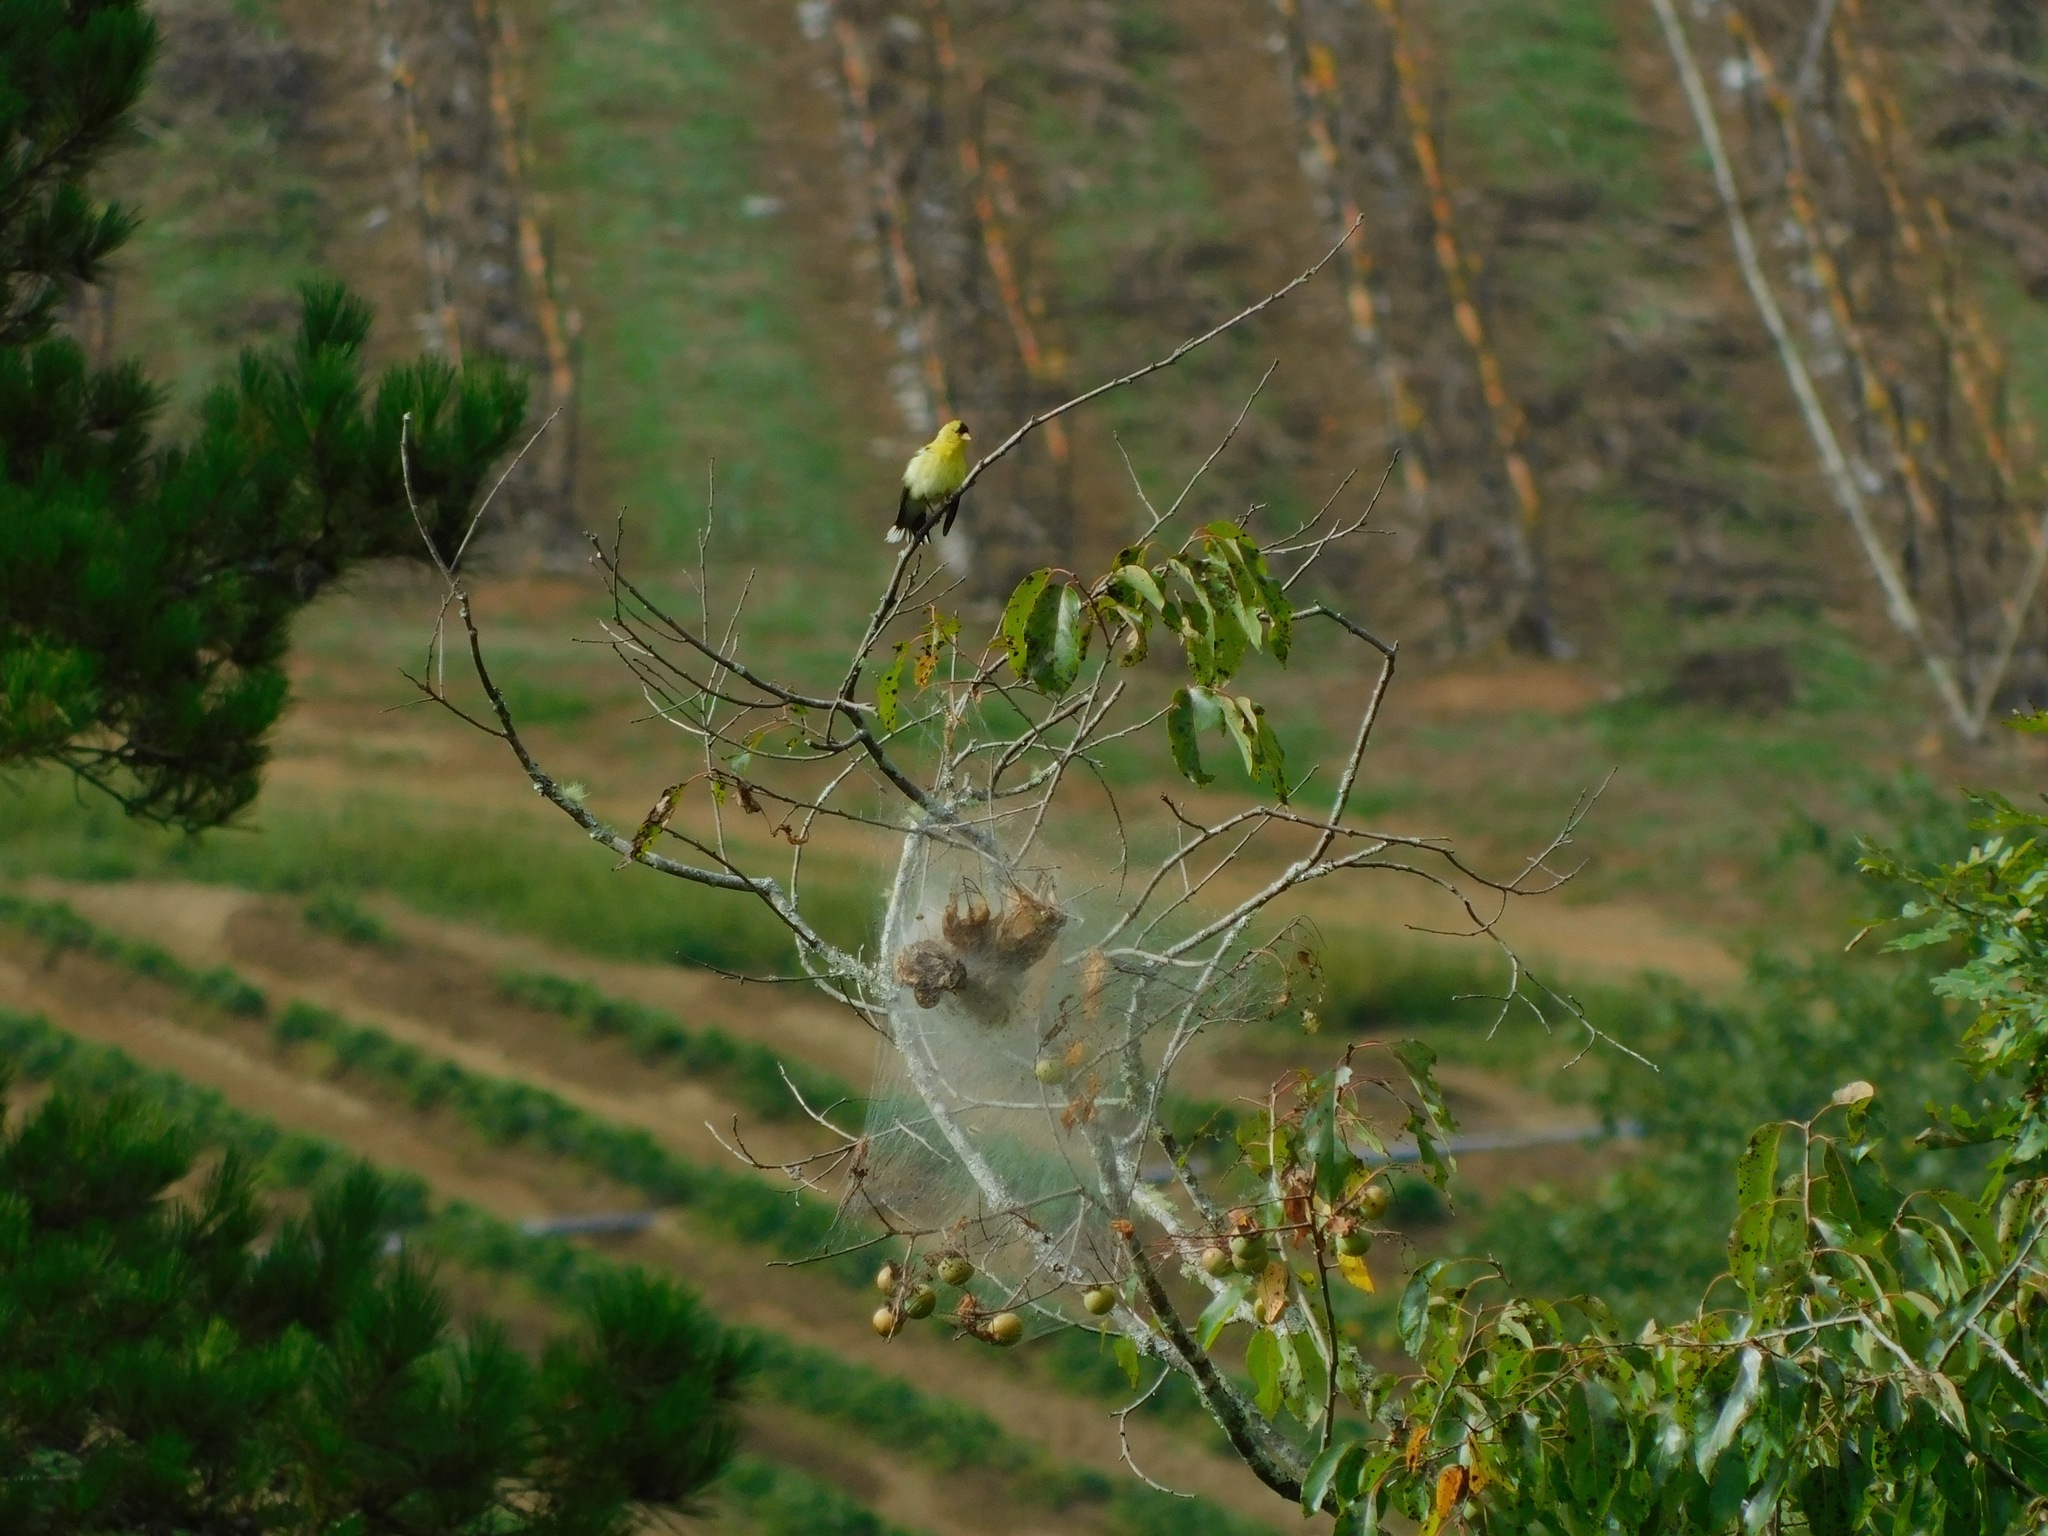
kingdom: Animalia
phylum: Chordata
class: Aves
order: Passeriformes
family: Fringillidae
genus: Spinus
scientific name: Spinus tristis
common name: American goldfinch
